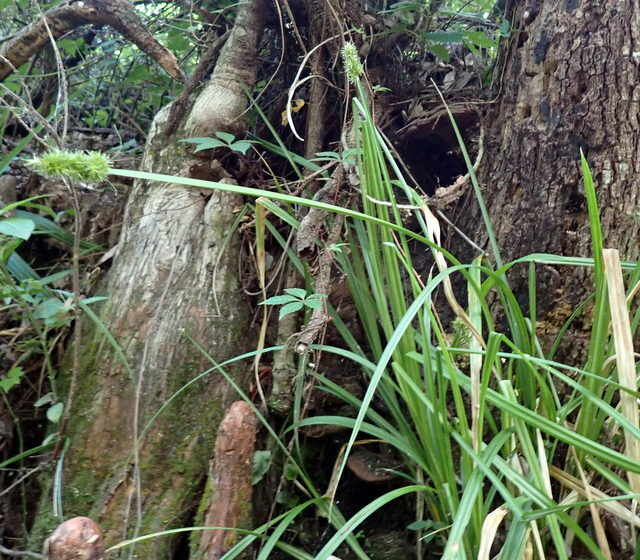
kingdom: Plantae
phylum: Tracheophyta
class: Liliopsida
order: Poales
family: Cyperaceae
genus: Carex
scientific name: Carex stipata
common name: Awl-fruited sedge
